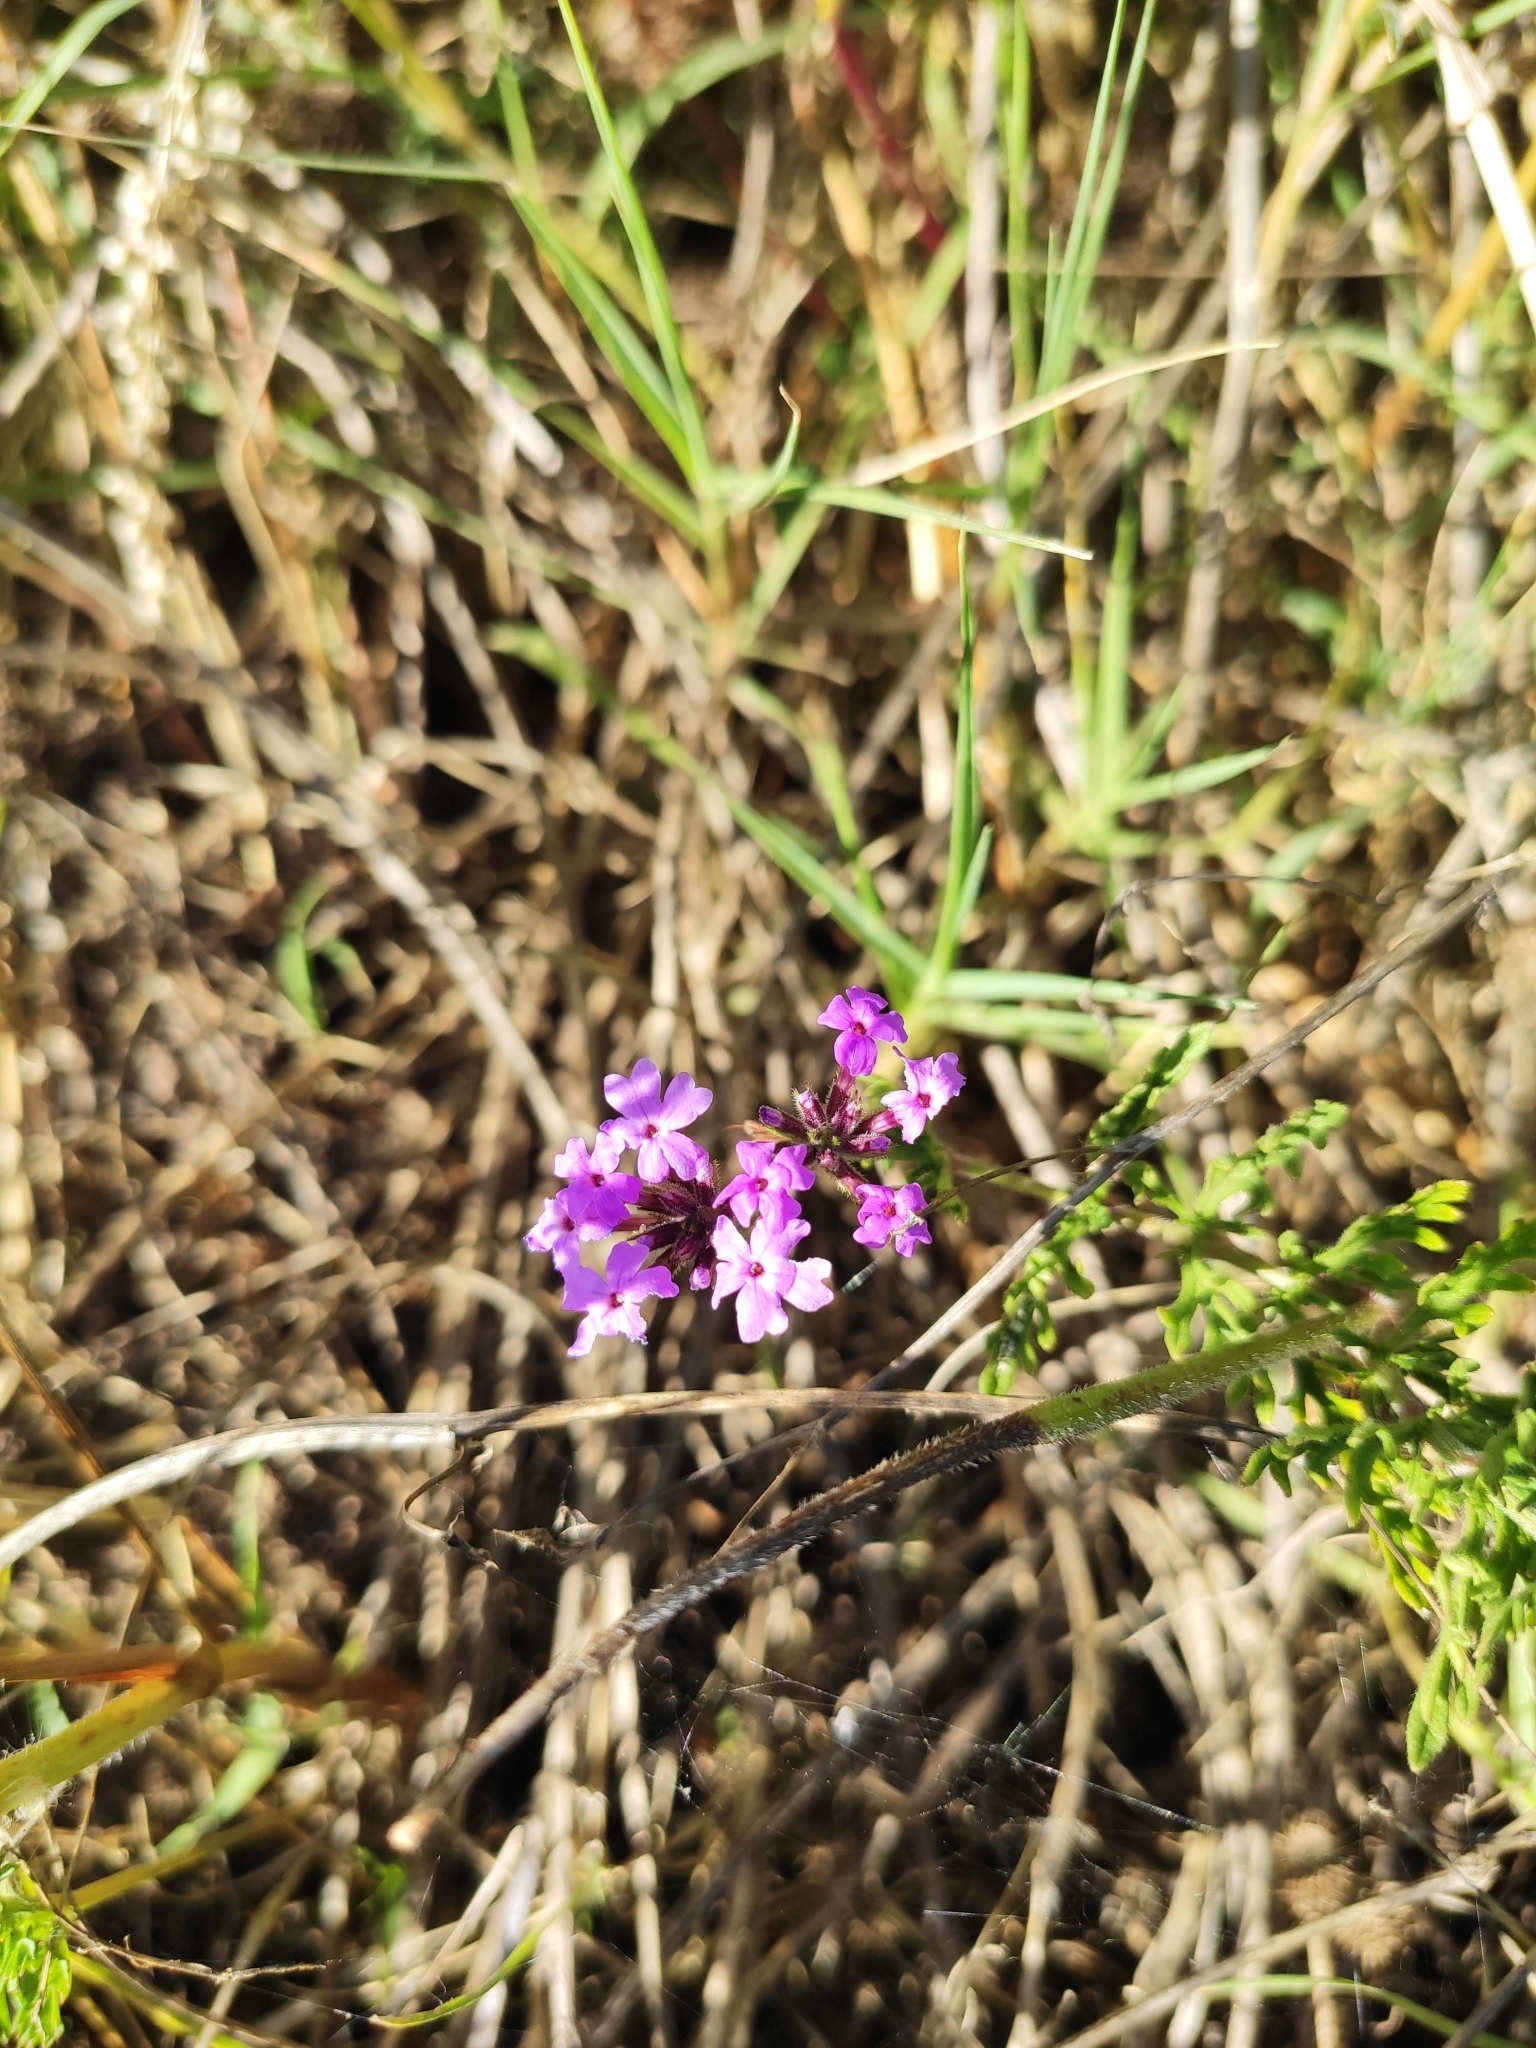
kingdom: Plantae
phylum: Tracheophyta
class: Magnoliopsida
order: Lamiales
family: Verbenaceae
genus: Verbena
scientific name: Verbena selloi
